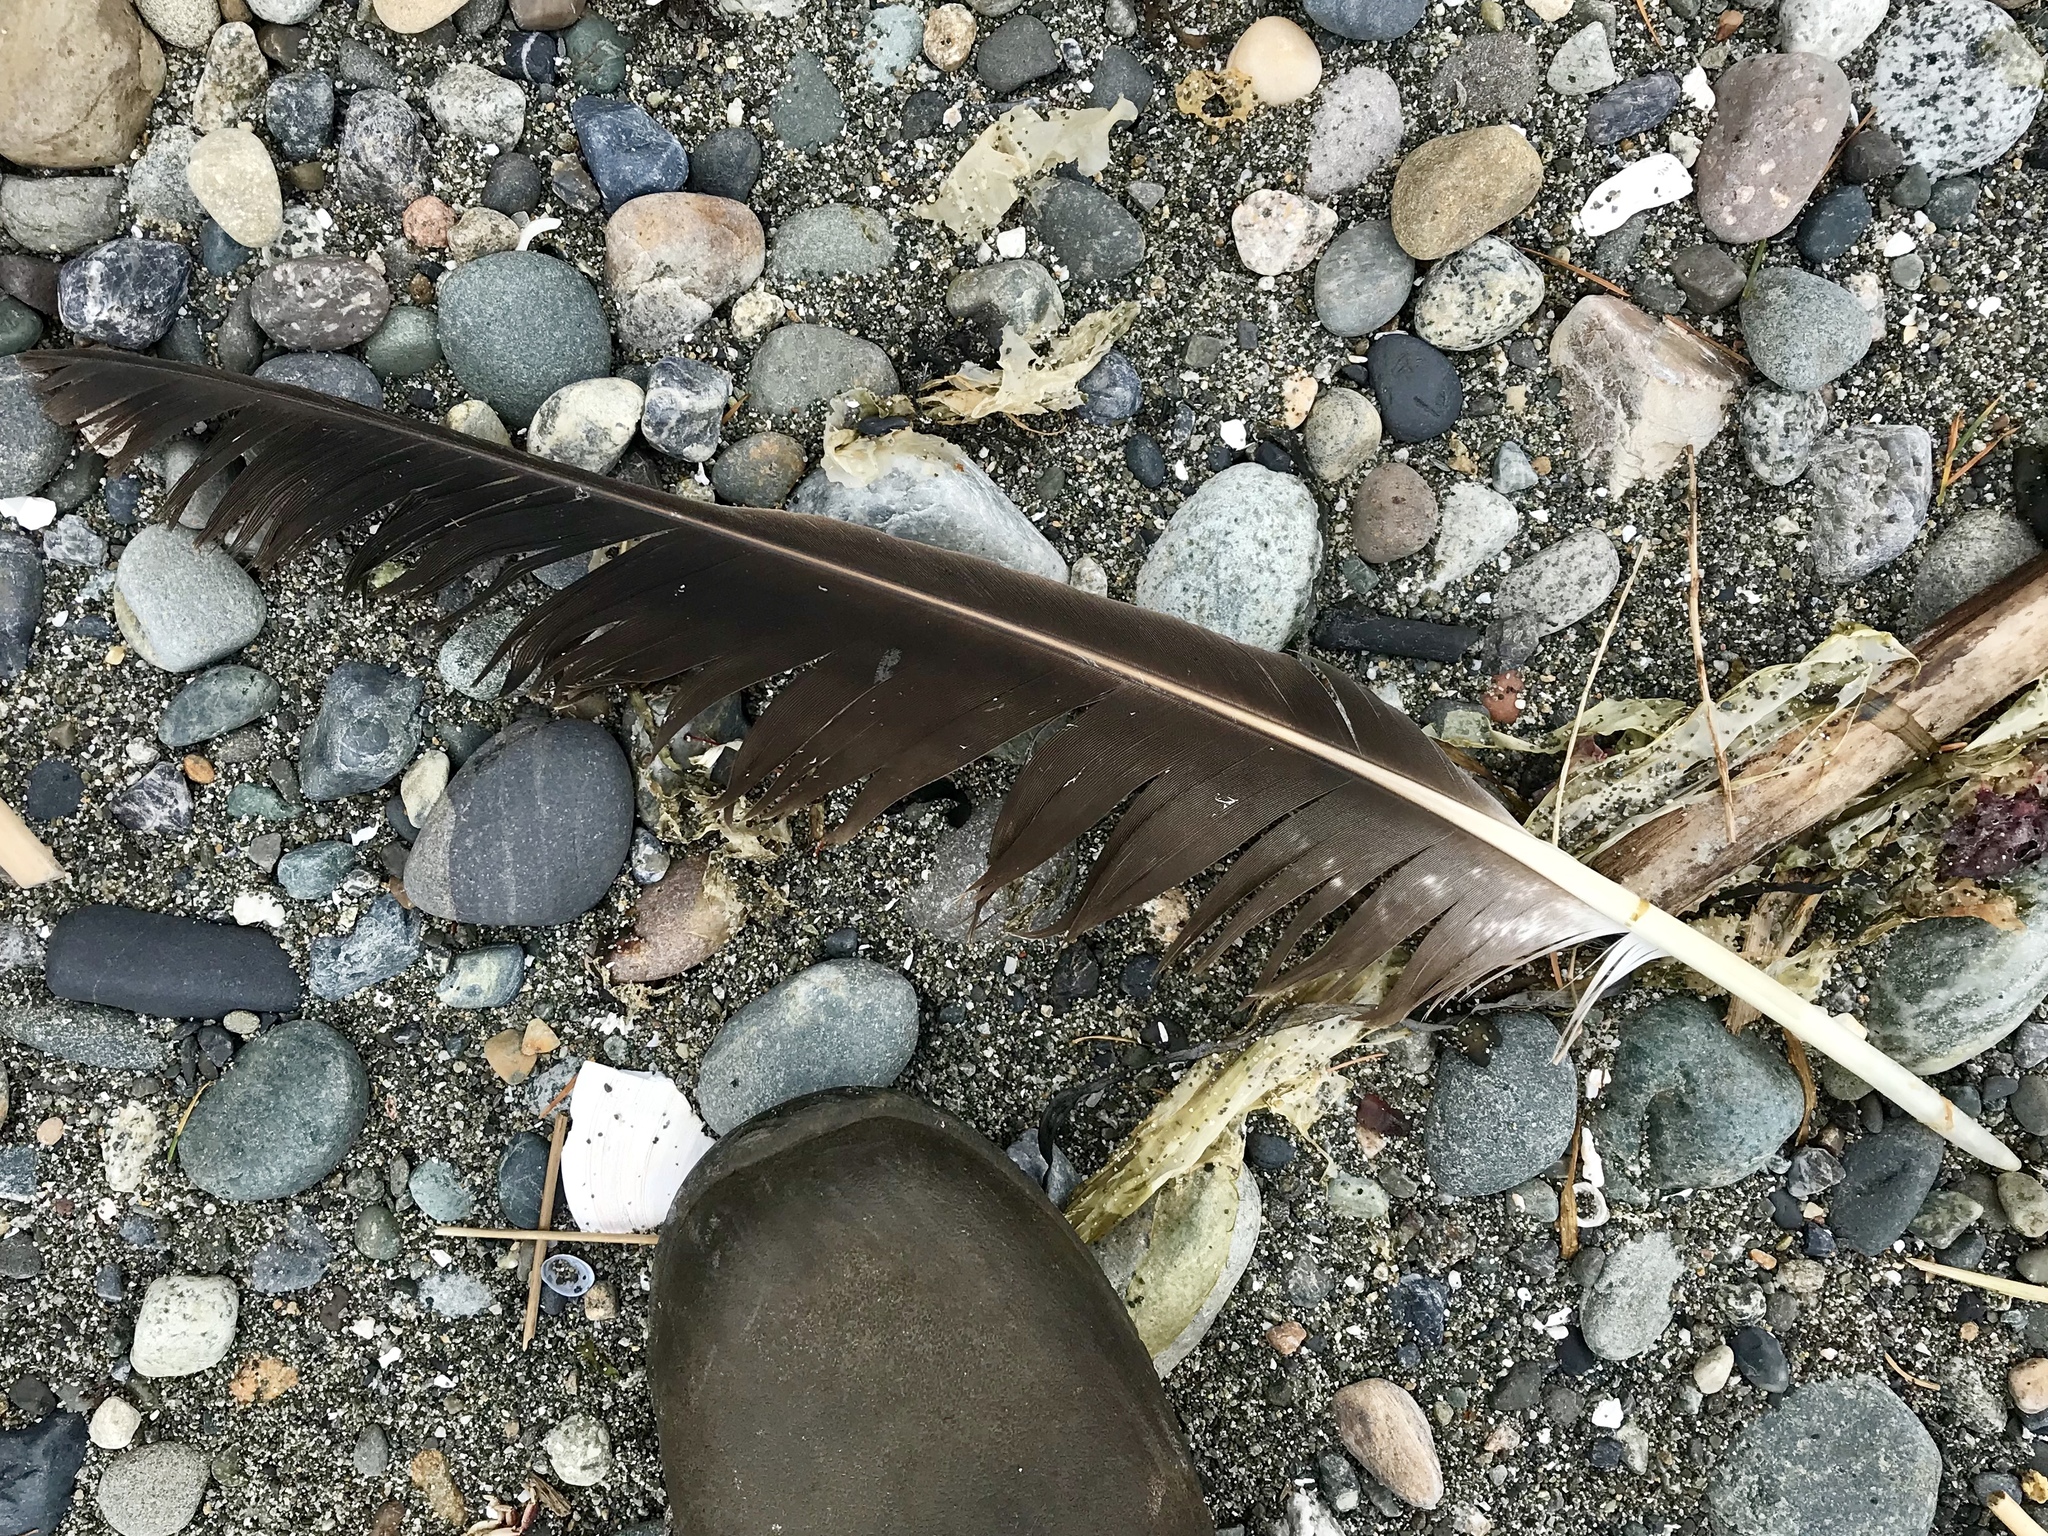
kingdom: Animalia
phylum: Chordata
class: Aves
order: Accipitriformes
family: Accipitridae
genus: Haliaeetus
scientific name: Haliaeetus leucocephalus
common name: Bald eagle
